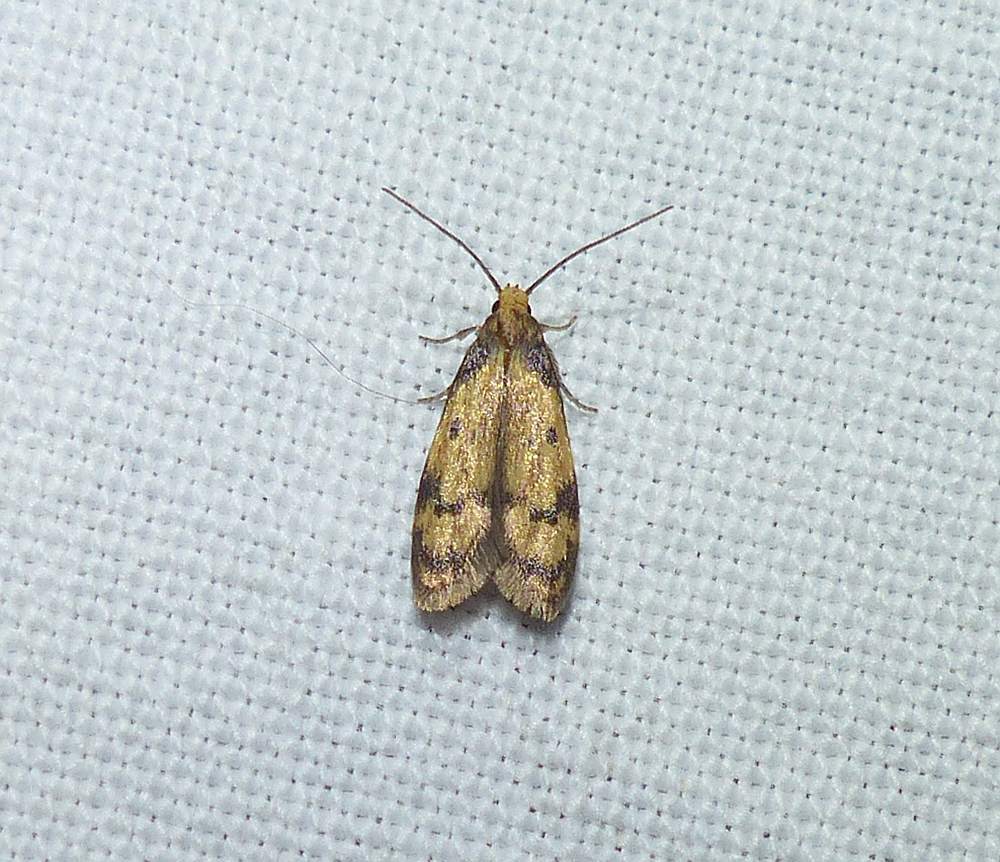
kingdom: Animalia
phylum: Arthropoda
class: Insecta
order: Lepidoptera
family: Autostichidae
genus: Gerdana
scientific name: Gerdana caritella
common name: Gerdana moth
